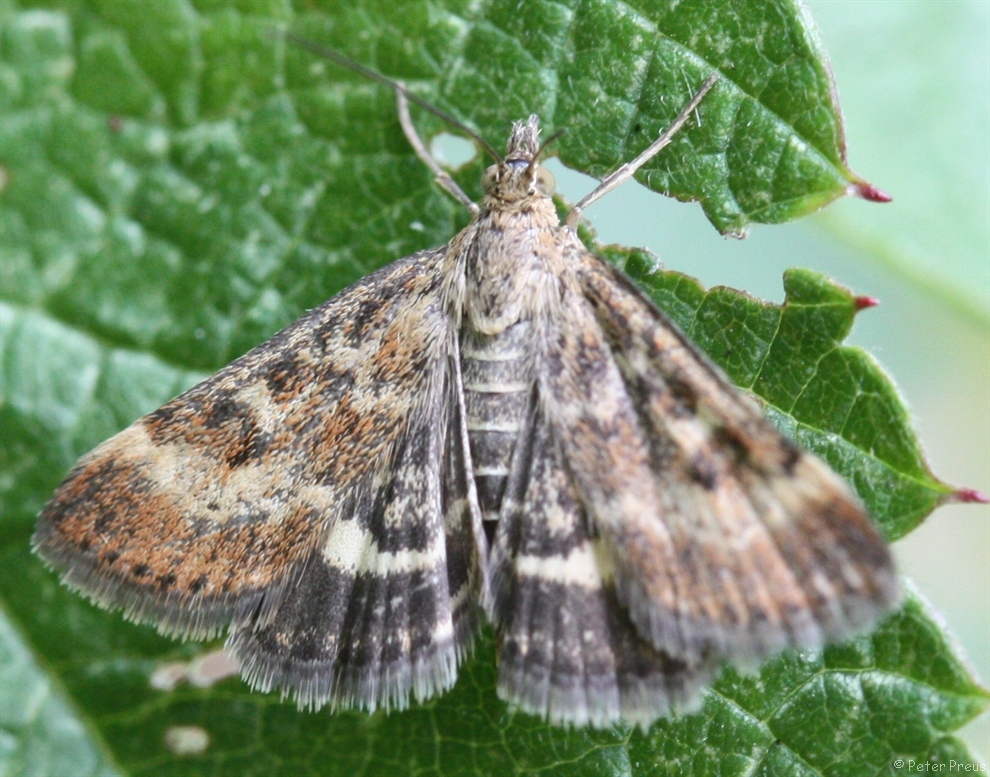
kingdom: Animalia
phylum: Arthropoda
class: Insecta
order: Lepidoptera
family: Crambidae
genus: Pyrausta
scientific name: Pyrausta despicata
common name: Straw-barred pearl
